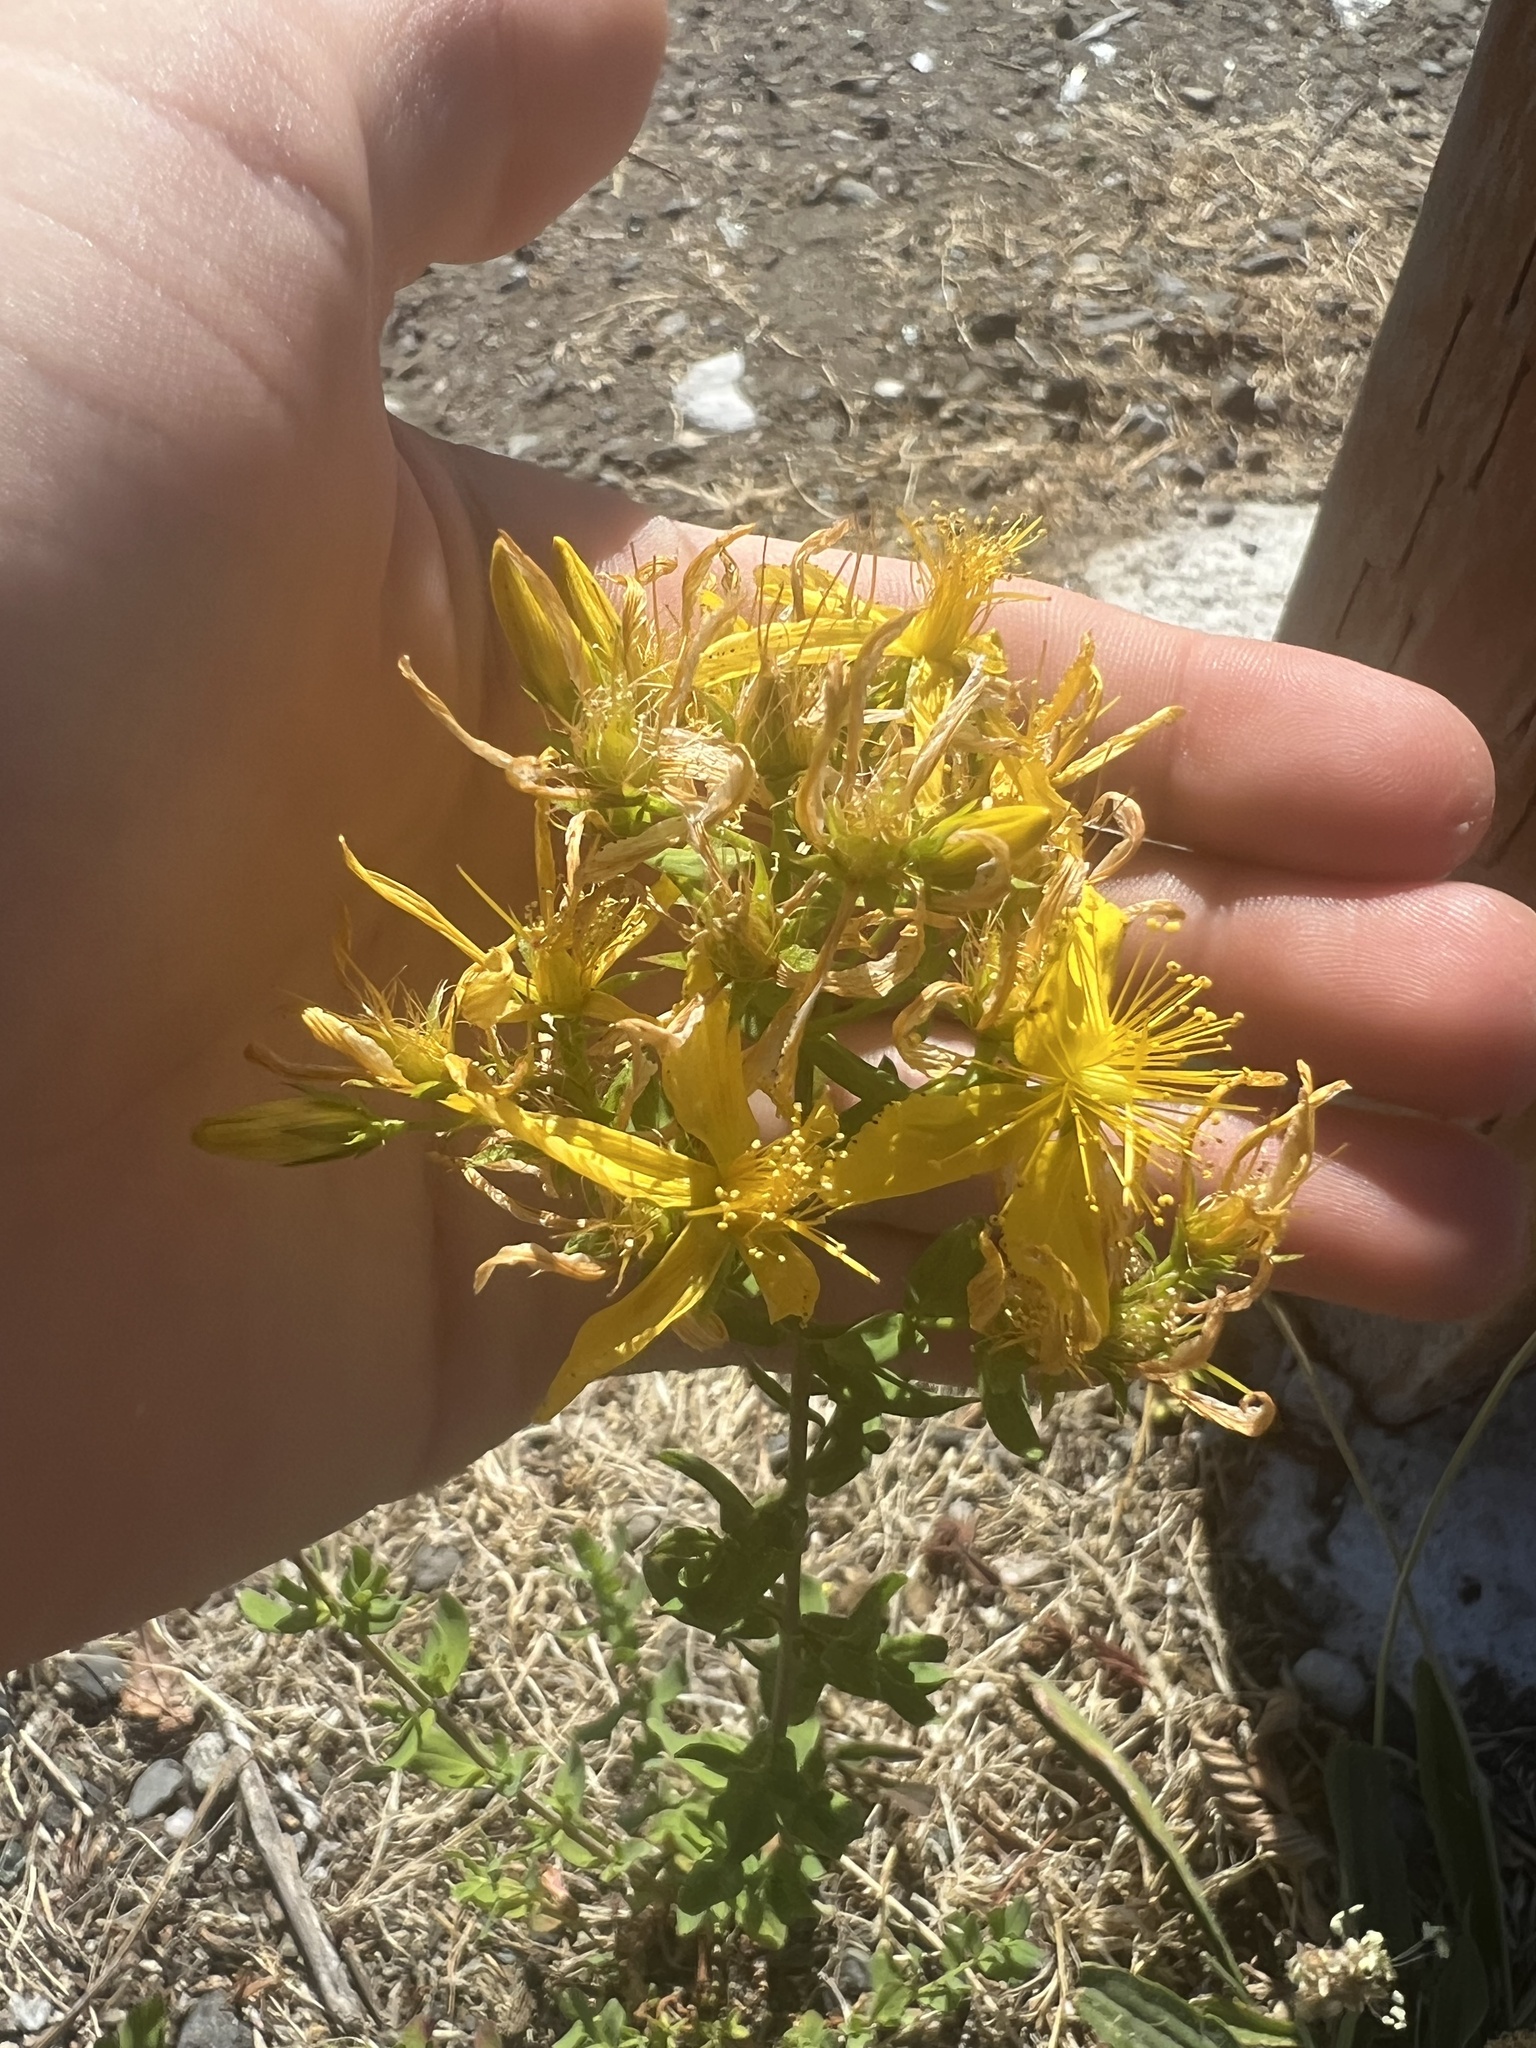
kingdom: Plantae
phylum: Tracheophyta
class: Magnoliopsida
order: Malpighiales
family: Hypericaceae
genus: Hypericum
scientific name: Hypericum perforatum
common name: Common st. johnswort
